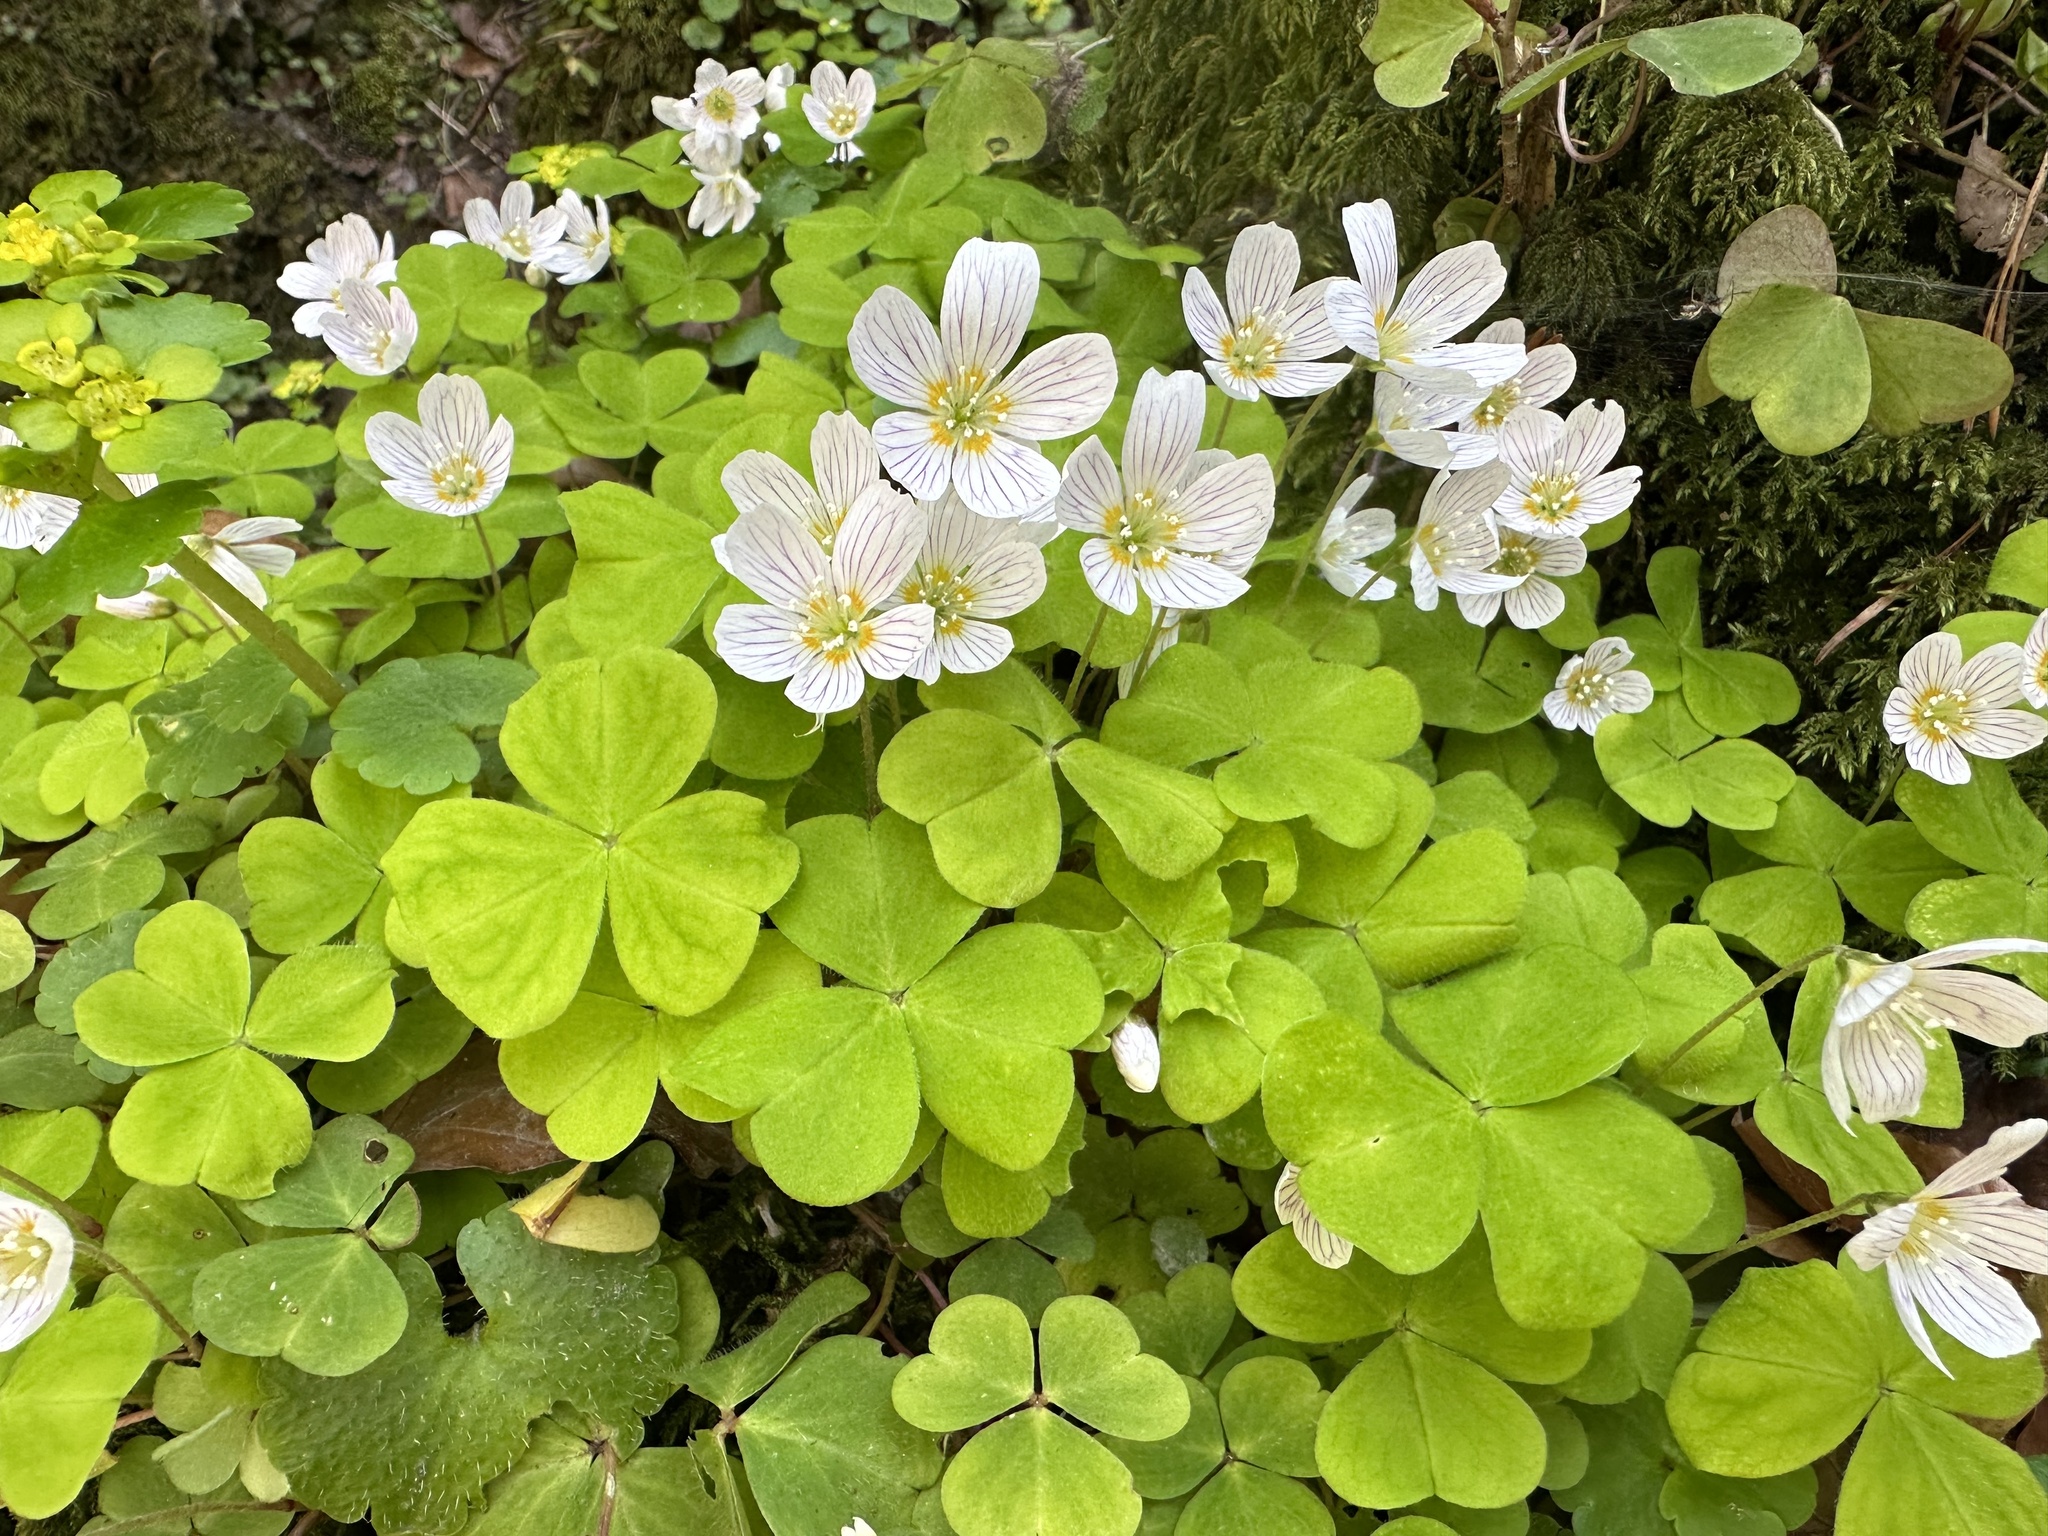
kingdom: Plantae
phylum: Tracheophyta
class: Magnoliopsida
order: Oxalidales
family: Oxalidaceae
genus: Oxalis
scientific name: Oxalis acetosella
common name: Wood-sorrel
